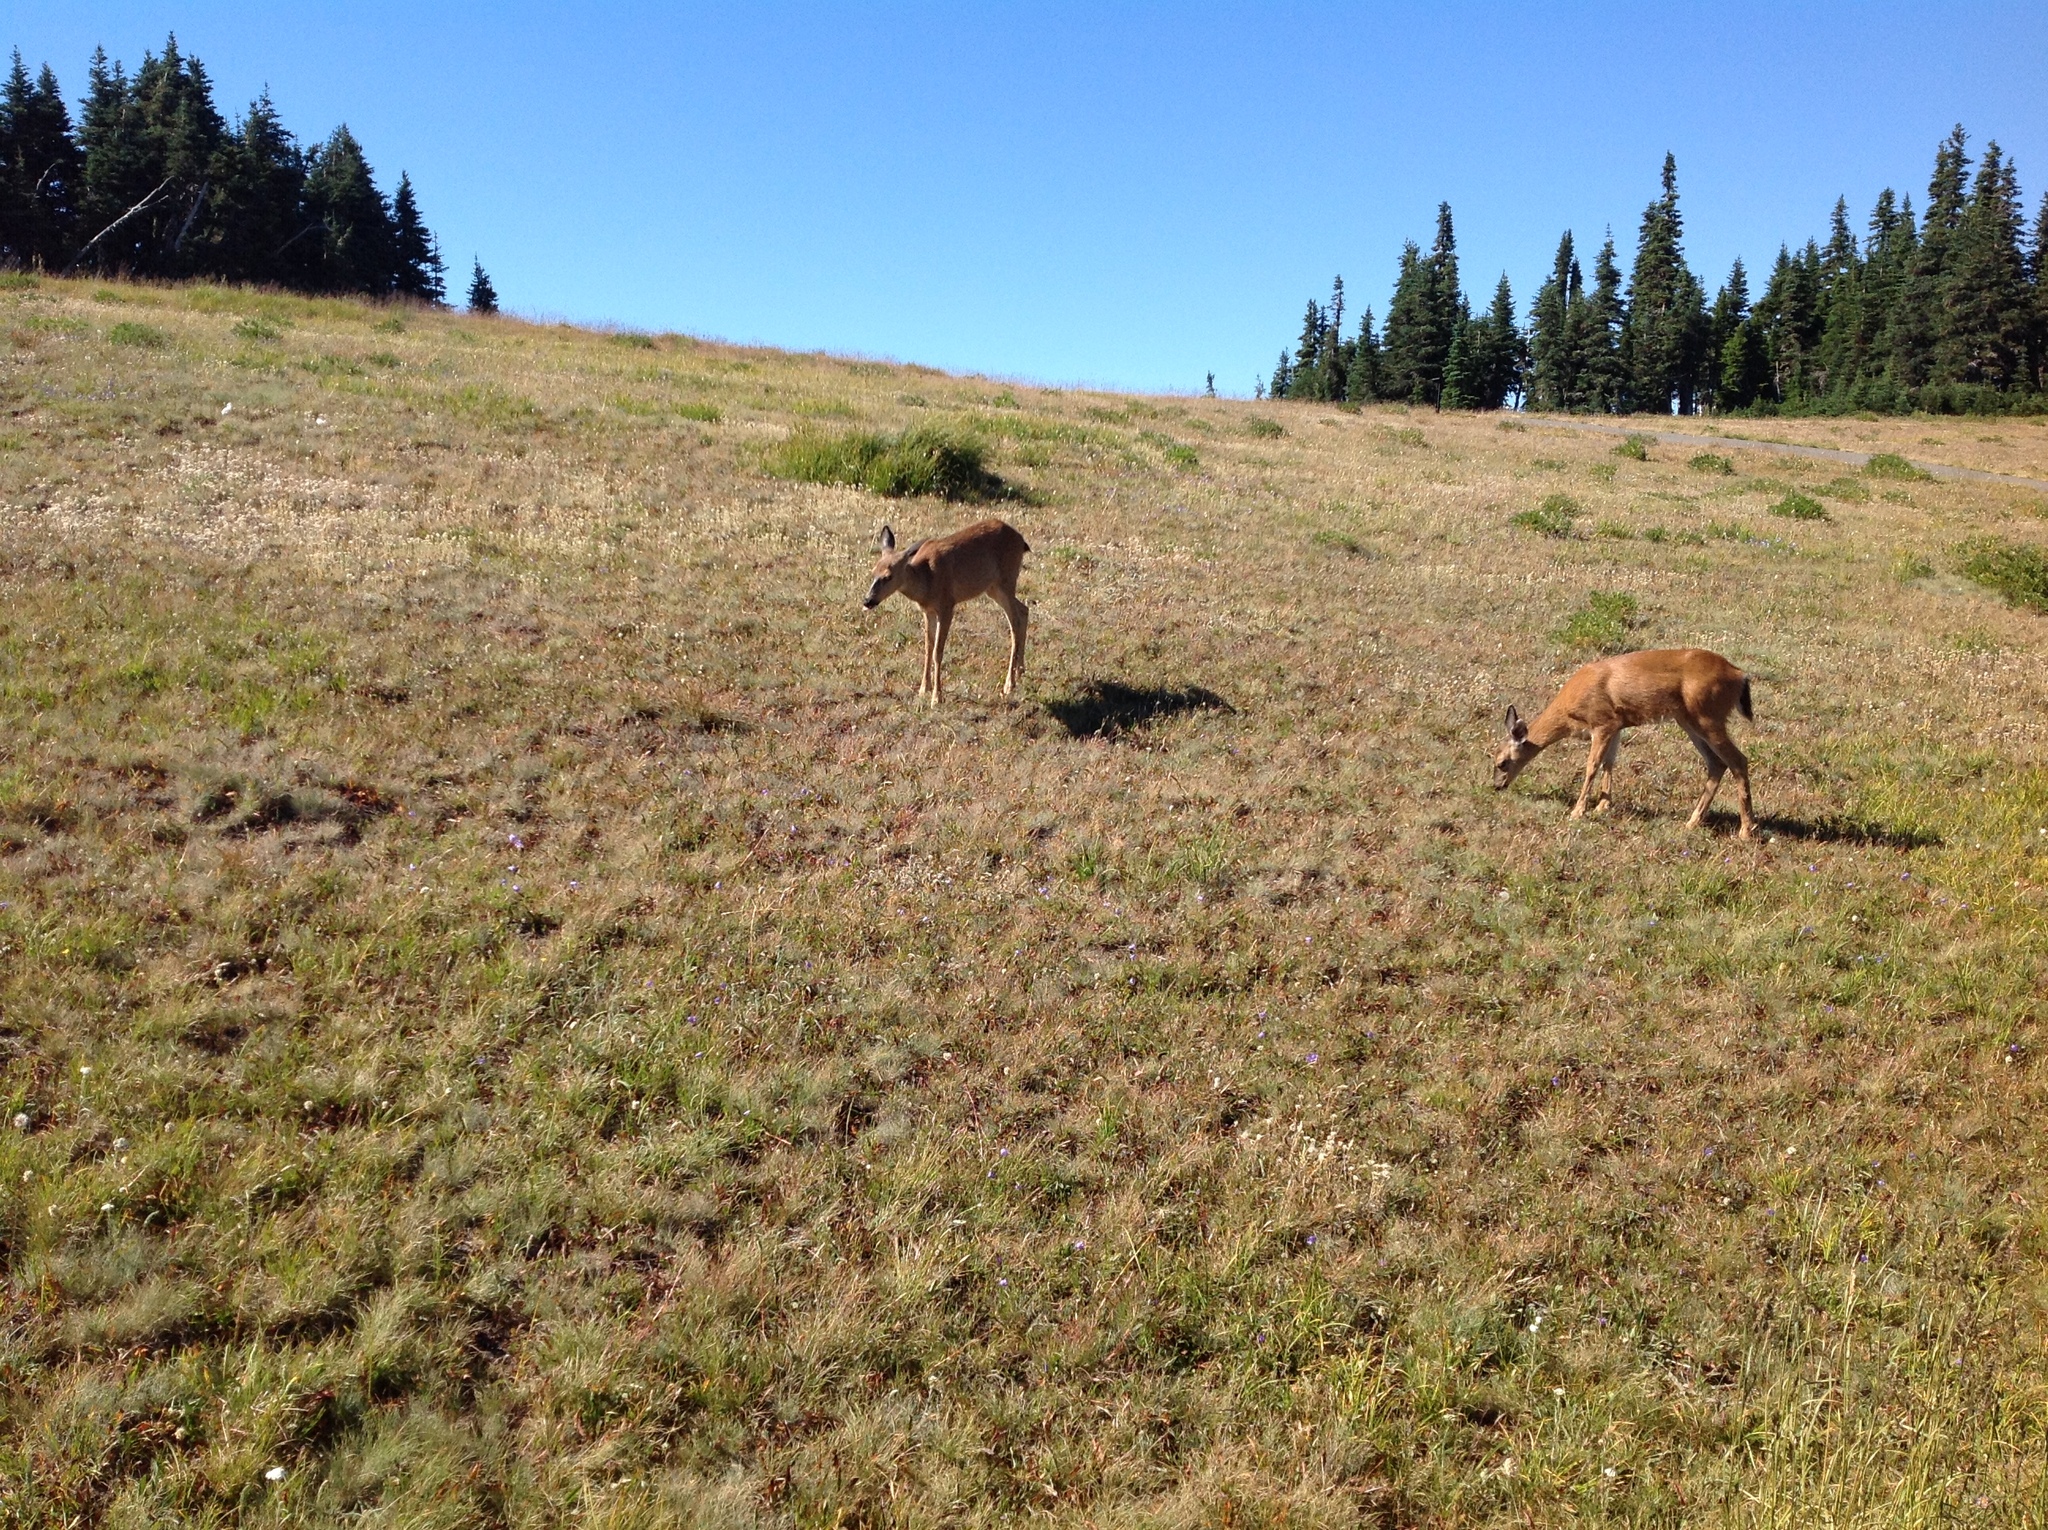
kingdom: Animalia
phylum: Chordata
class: Mammalia
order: Artiodactyla
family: Cervidae
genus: Odocoileus
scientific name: Odocoileus hemionus
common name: Mule deer
